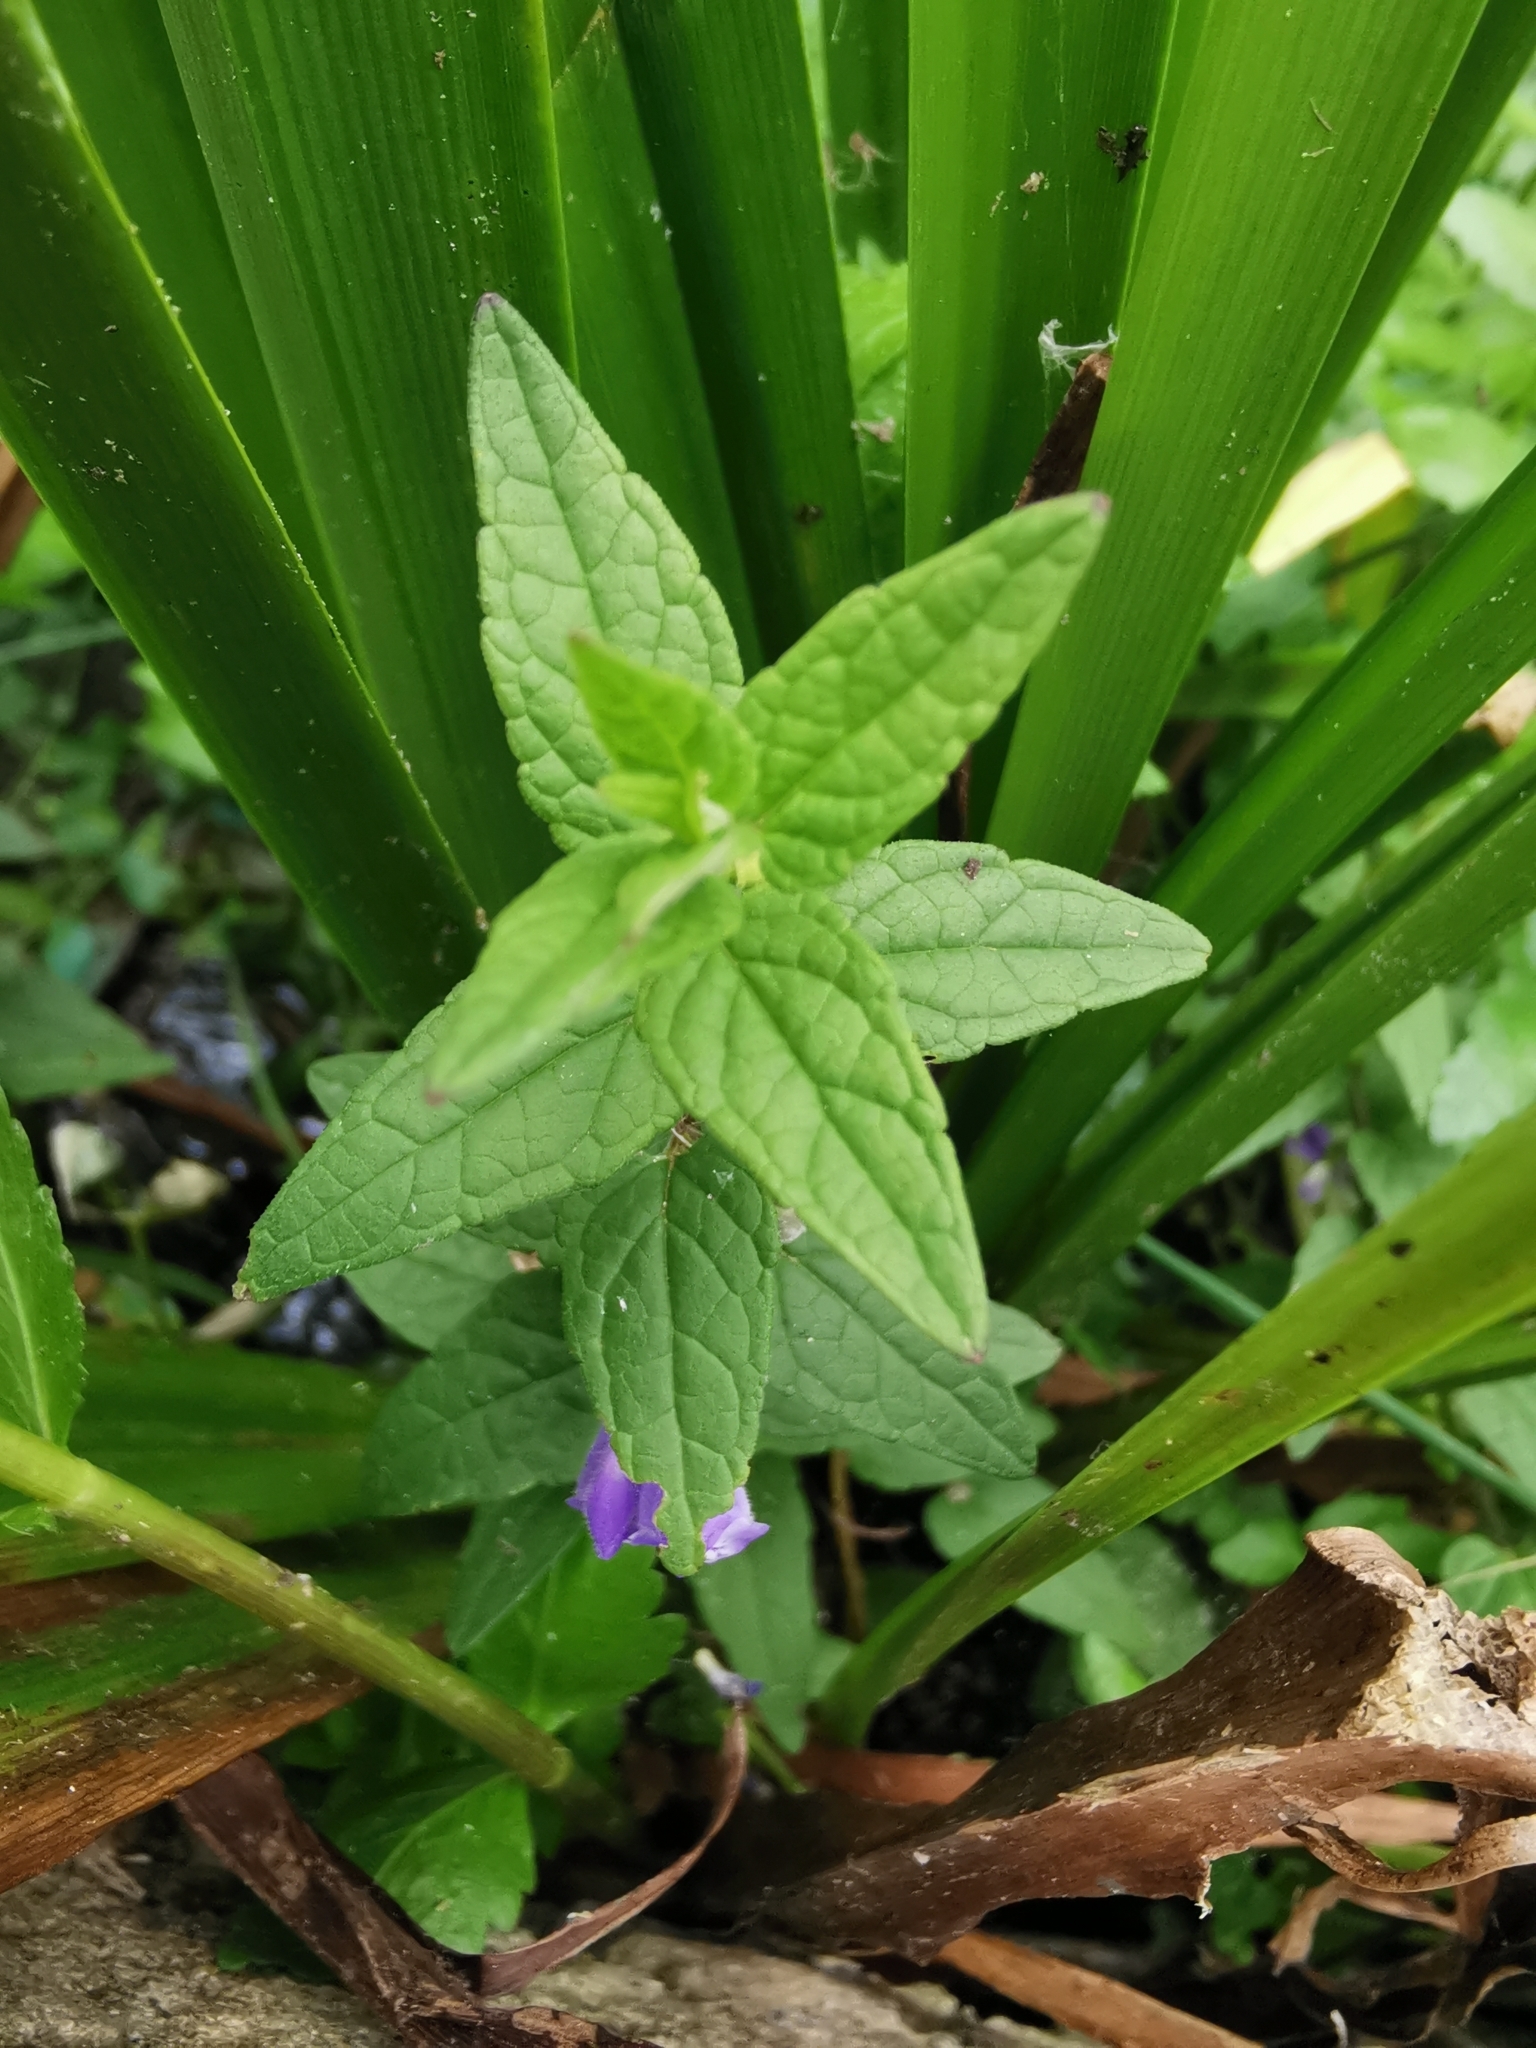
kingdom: Plantae
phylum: Tracheophyta
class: Magnoliopsida
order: Lamiales
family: Lamiaceae
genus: Scutellaria
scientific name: Scutellaria galericulata
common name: Skullcap
